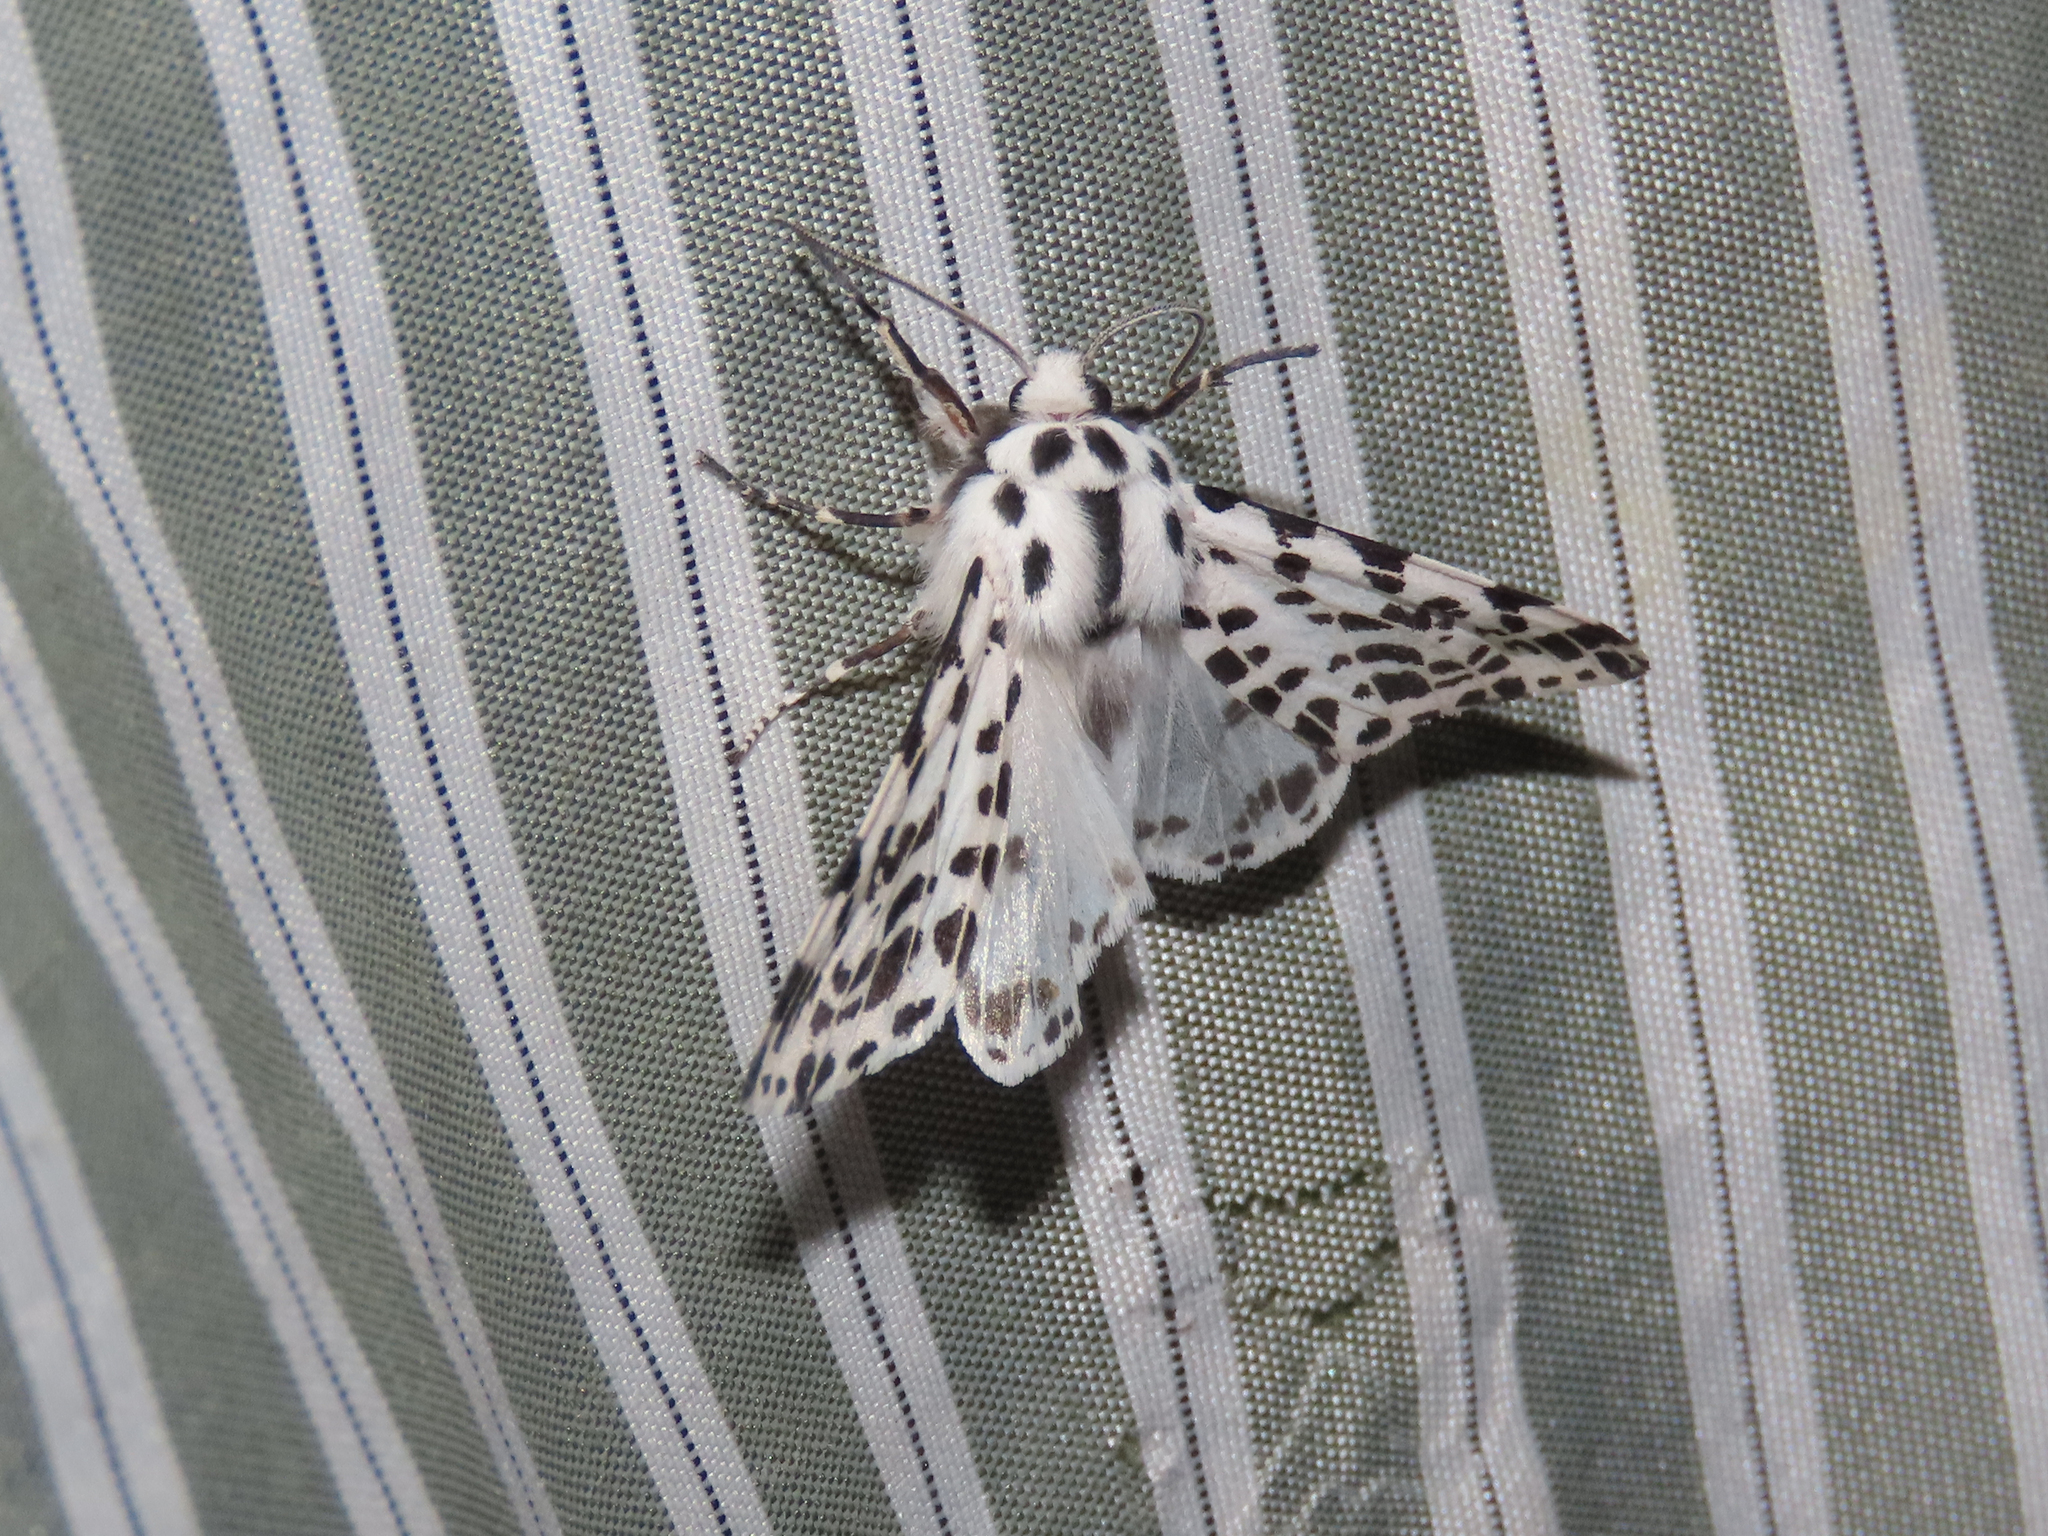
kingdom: Animalia
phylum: Arthropoda
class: Insecta
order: Lepidoptera
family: Erebidae
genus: Hypercompe
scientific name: Hypercompe permaculata
